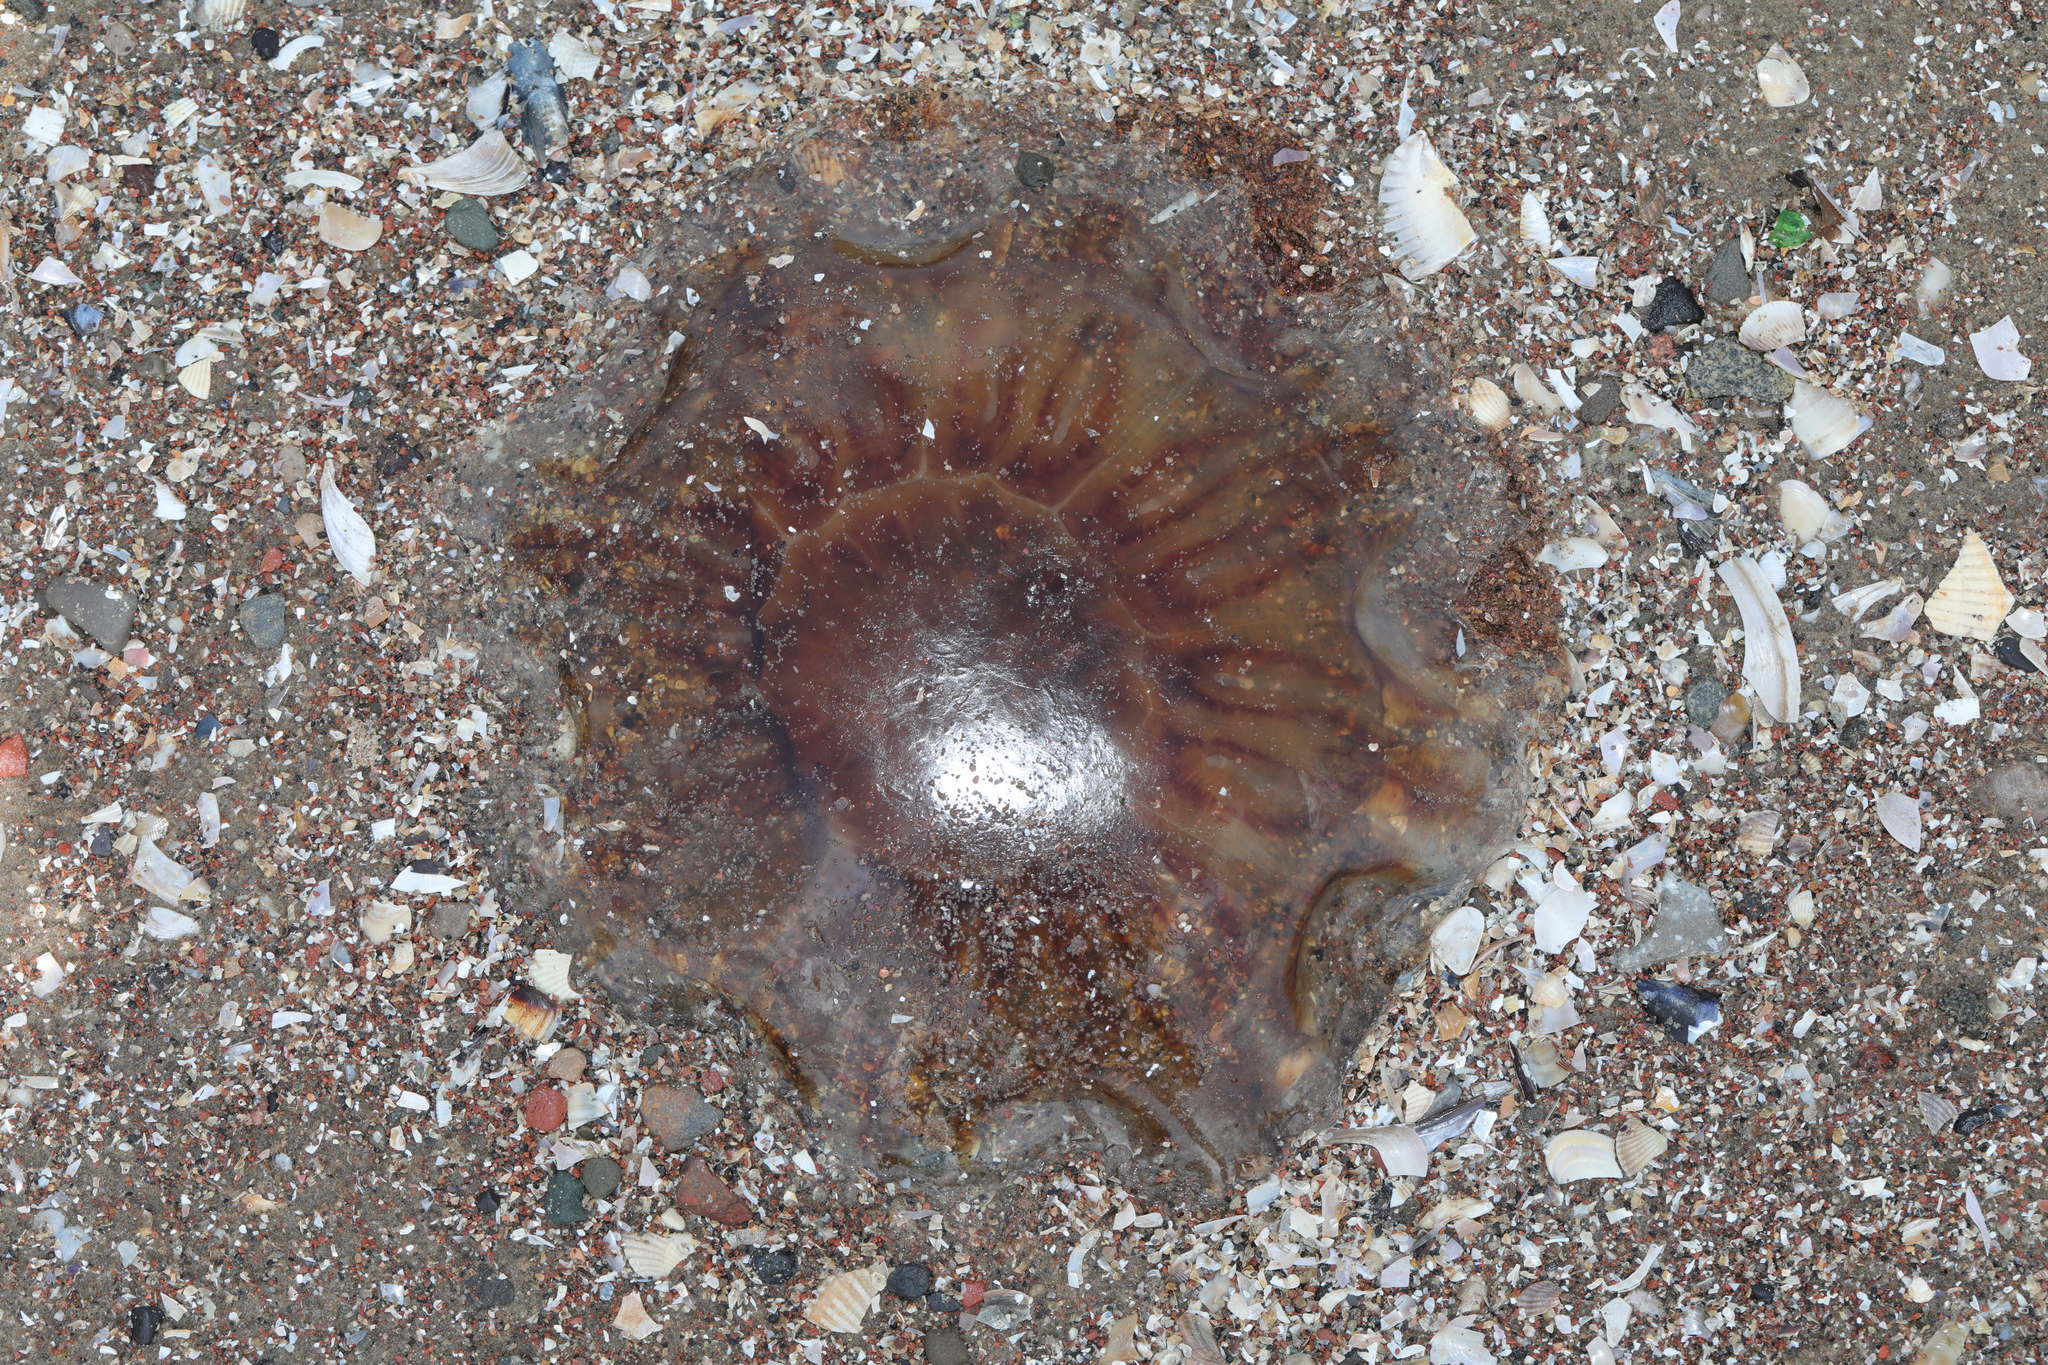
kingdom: Animalia
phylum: Cnidaria
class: Scyphozoa
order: Semaeostomeae
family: Cyaneidae
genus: Cyanea
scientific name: Cyanea capillata
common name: Lion's mane jellyfish
